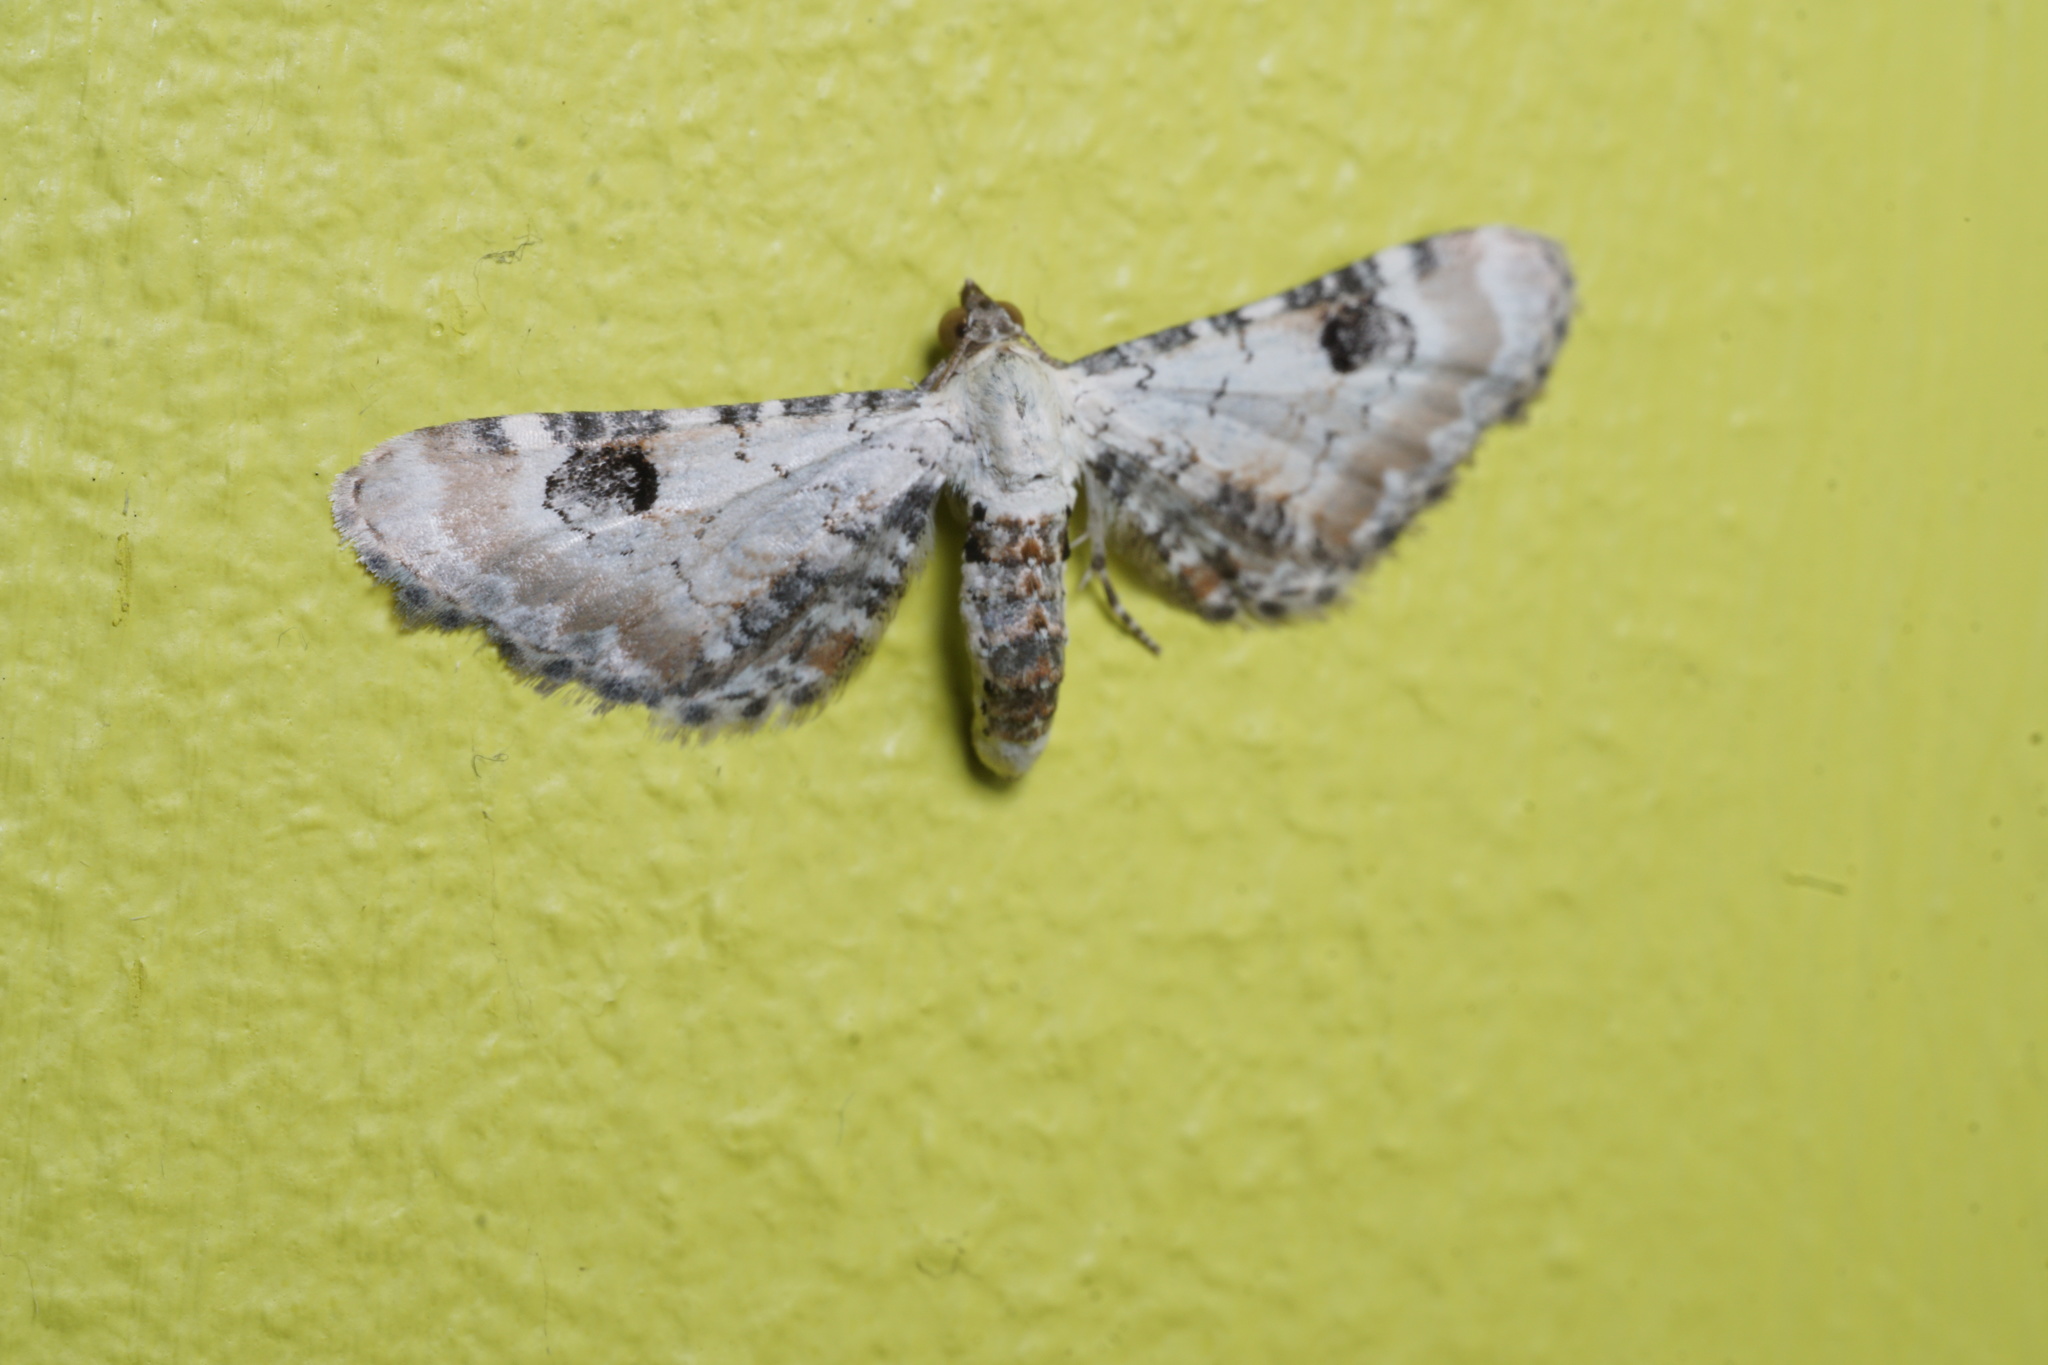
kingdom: Animalia
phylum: Arthropoda
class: Insecta
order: Lepidoptera
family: Geometridae
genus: Eupithecia
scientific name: Eupithecia centaureata
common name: Lime-speck pug
